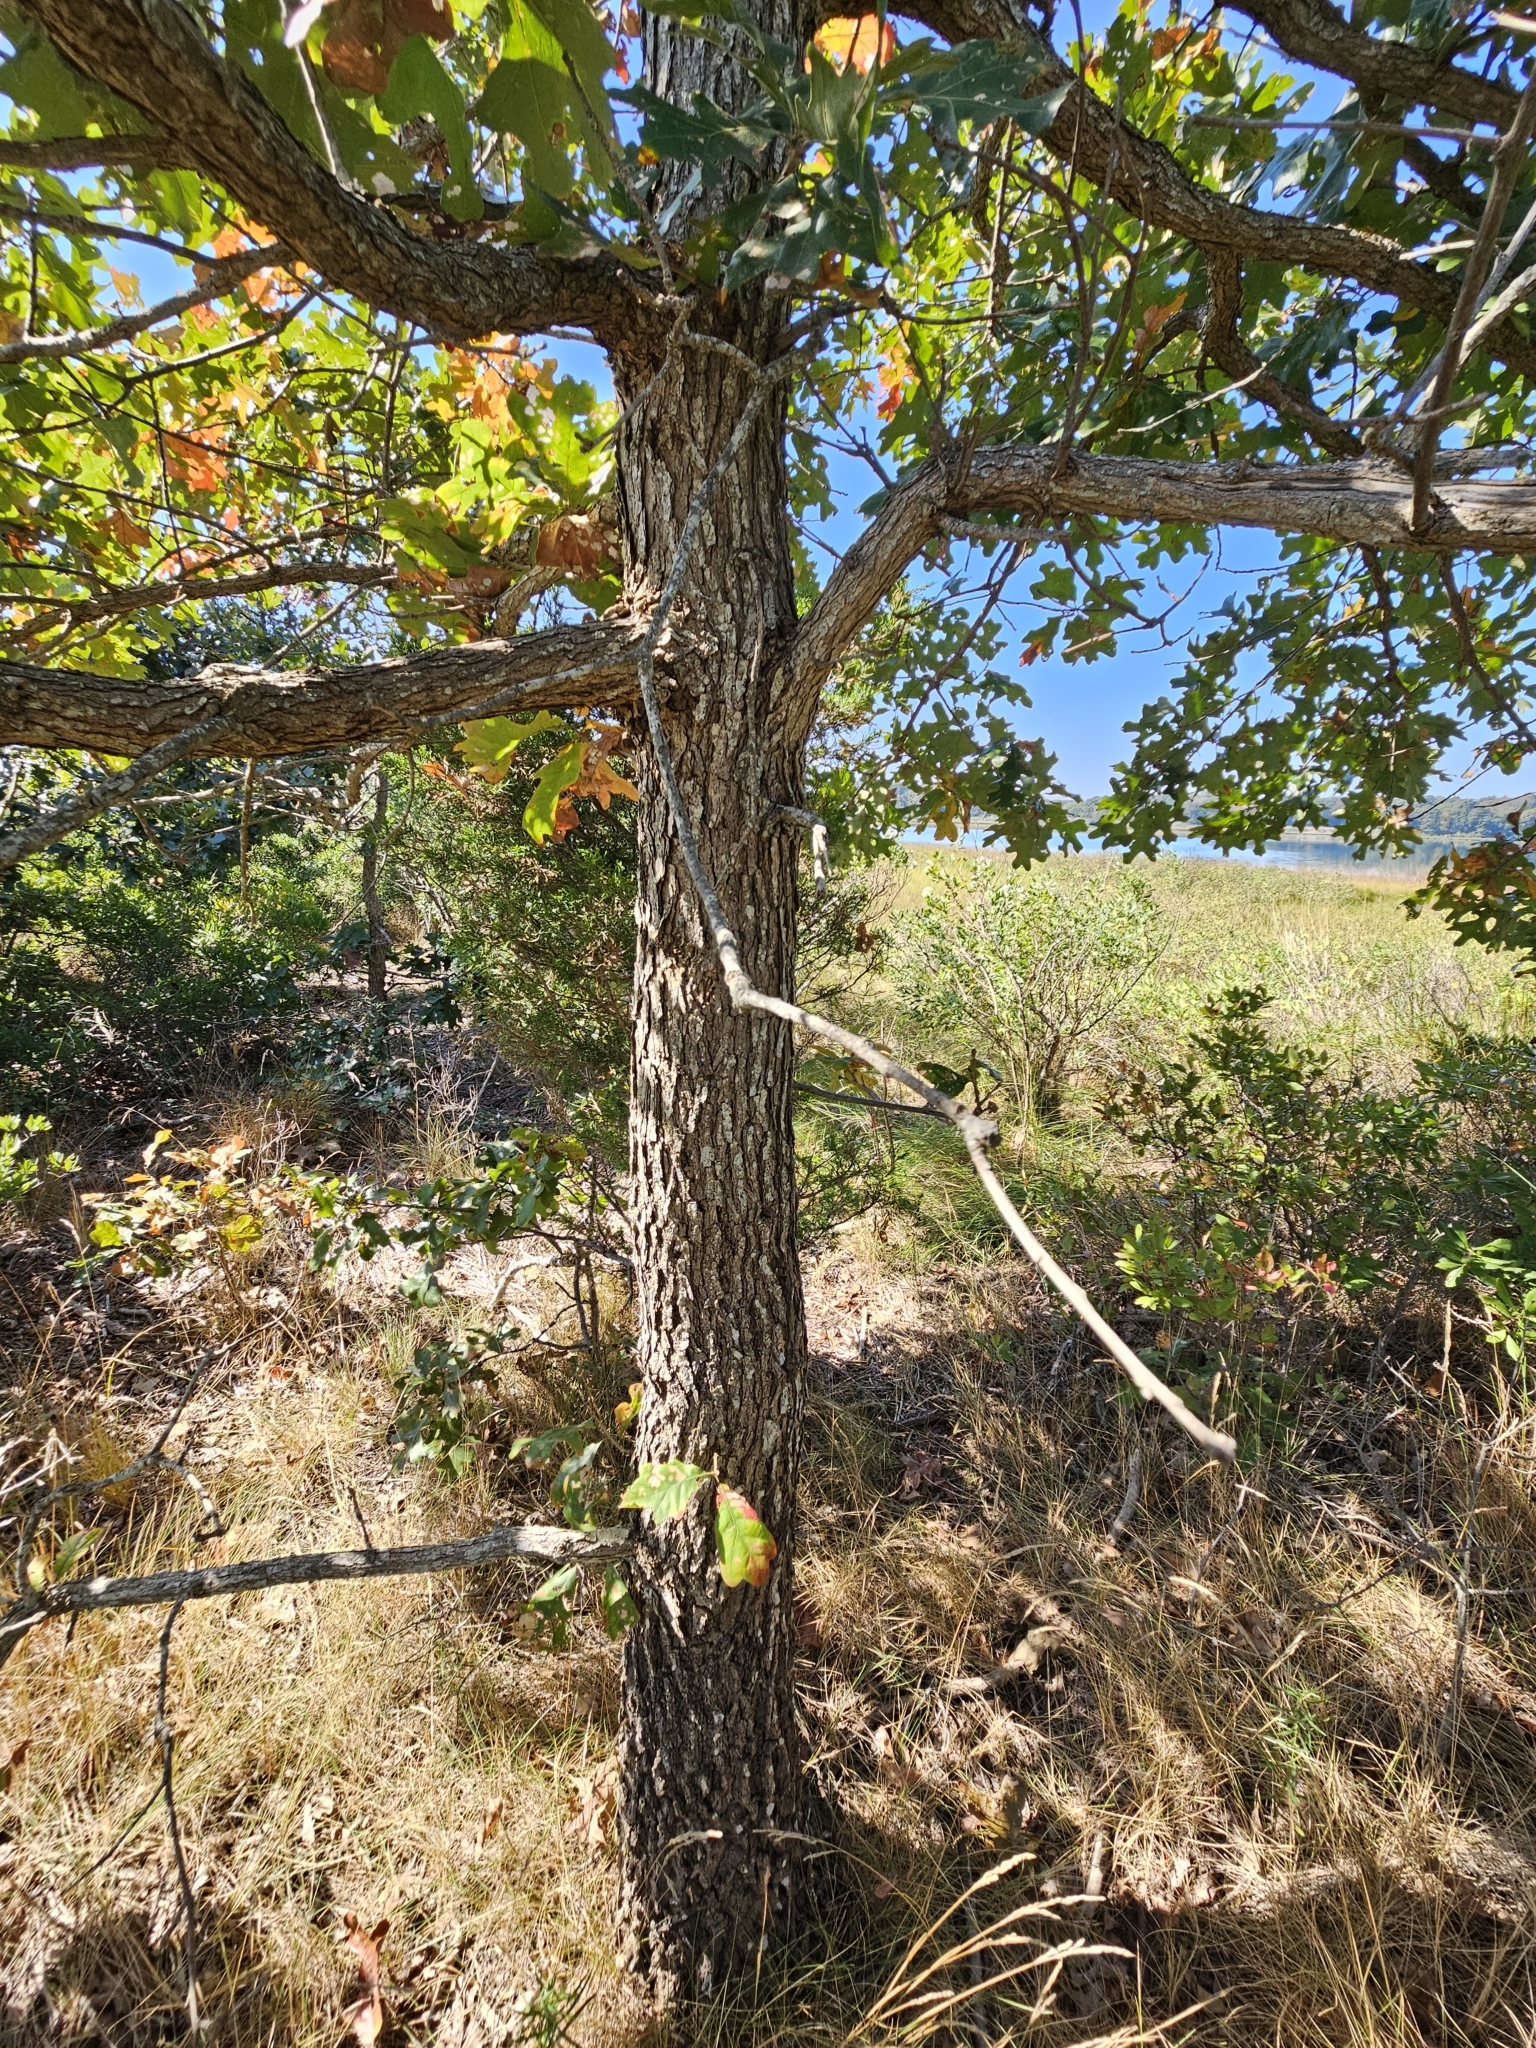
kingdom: Plantae
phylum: Tracheophyta
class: Magnoliopsida
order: Fagales
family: Fagaceae
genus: Quercus
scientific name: Quercus stellata
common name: Post oak
